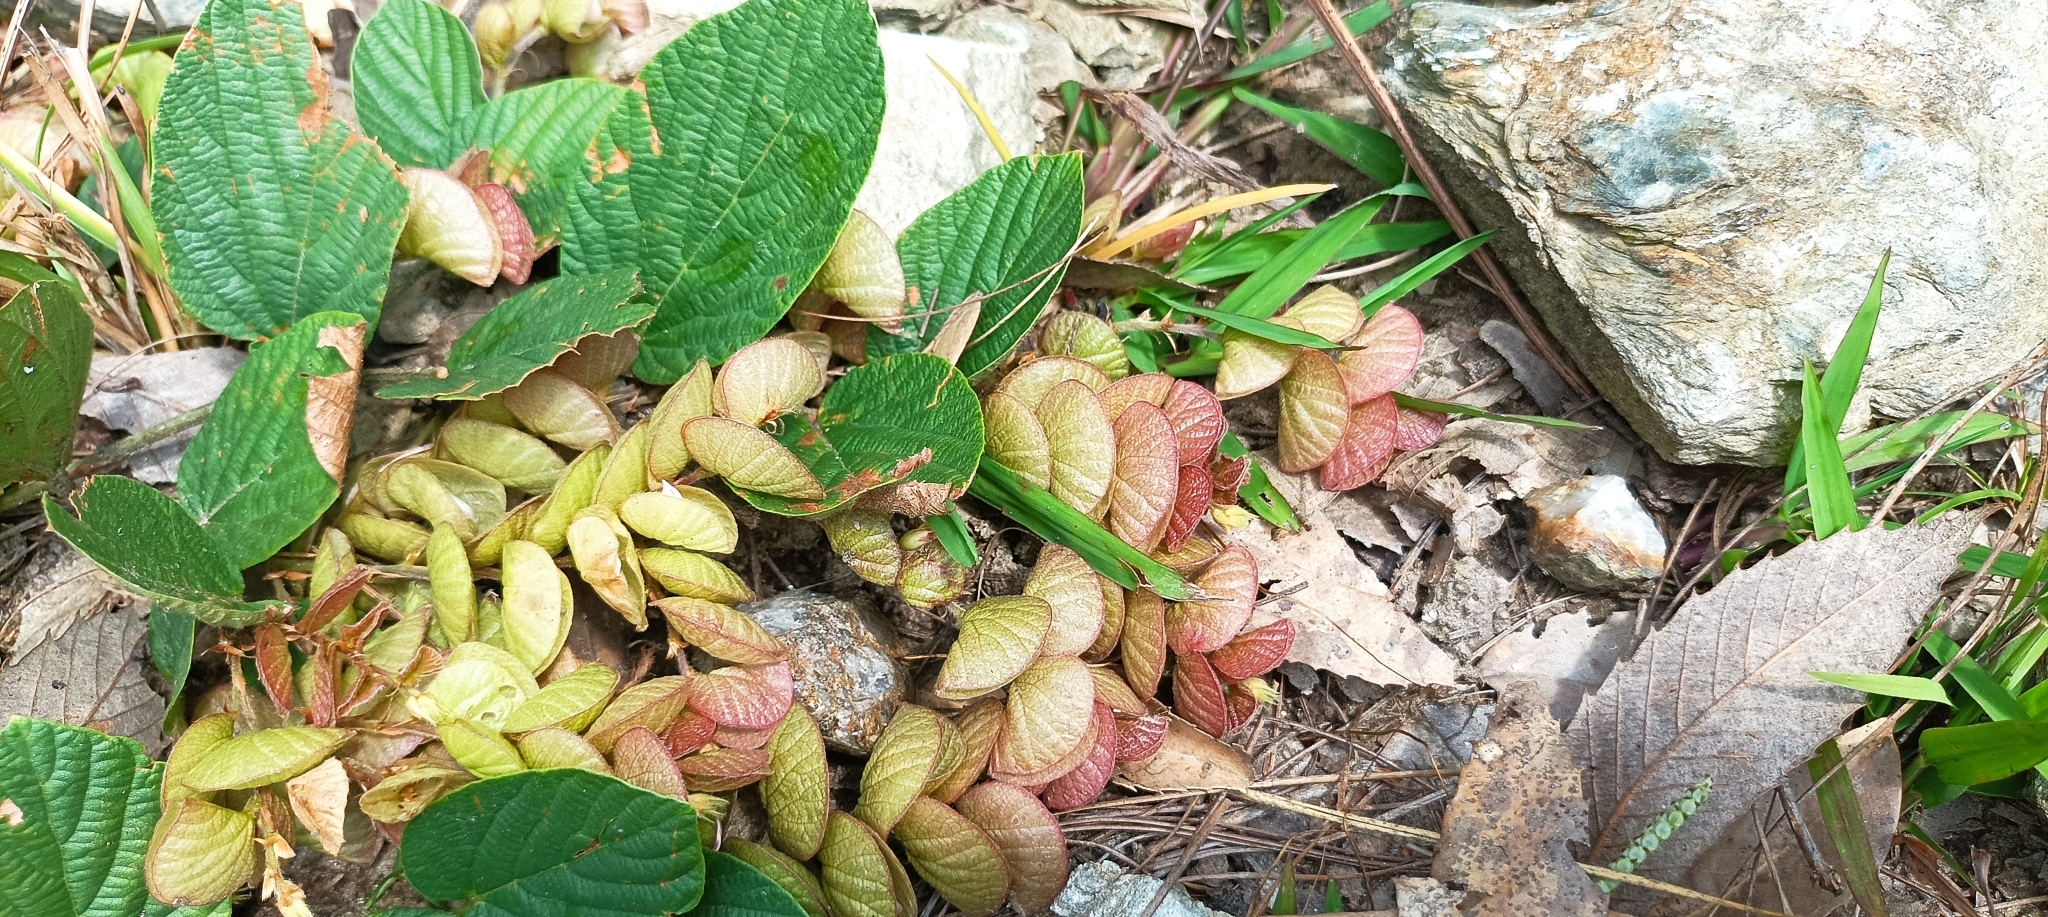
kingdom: Plantae
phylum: Tracheophyta
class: Magnoliopsida
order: Fabales
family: Fabaceae
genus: Flemingia
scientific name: Flemingia strobilifera
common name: Wild hops
